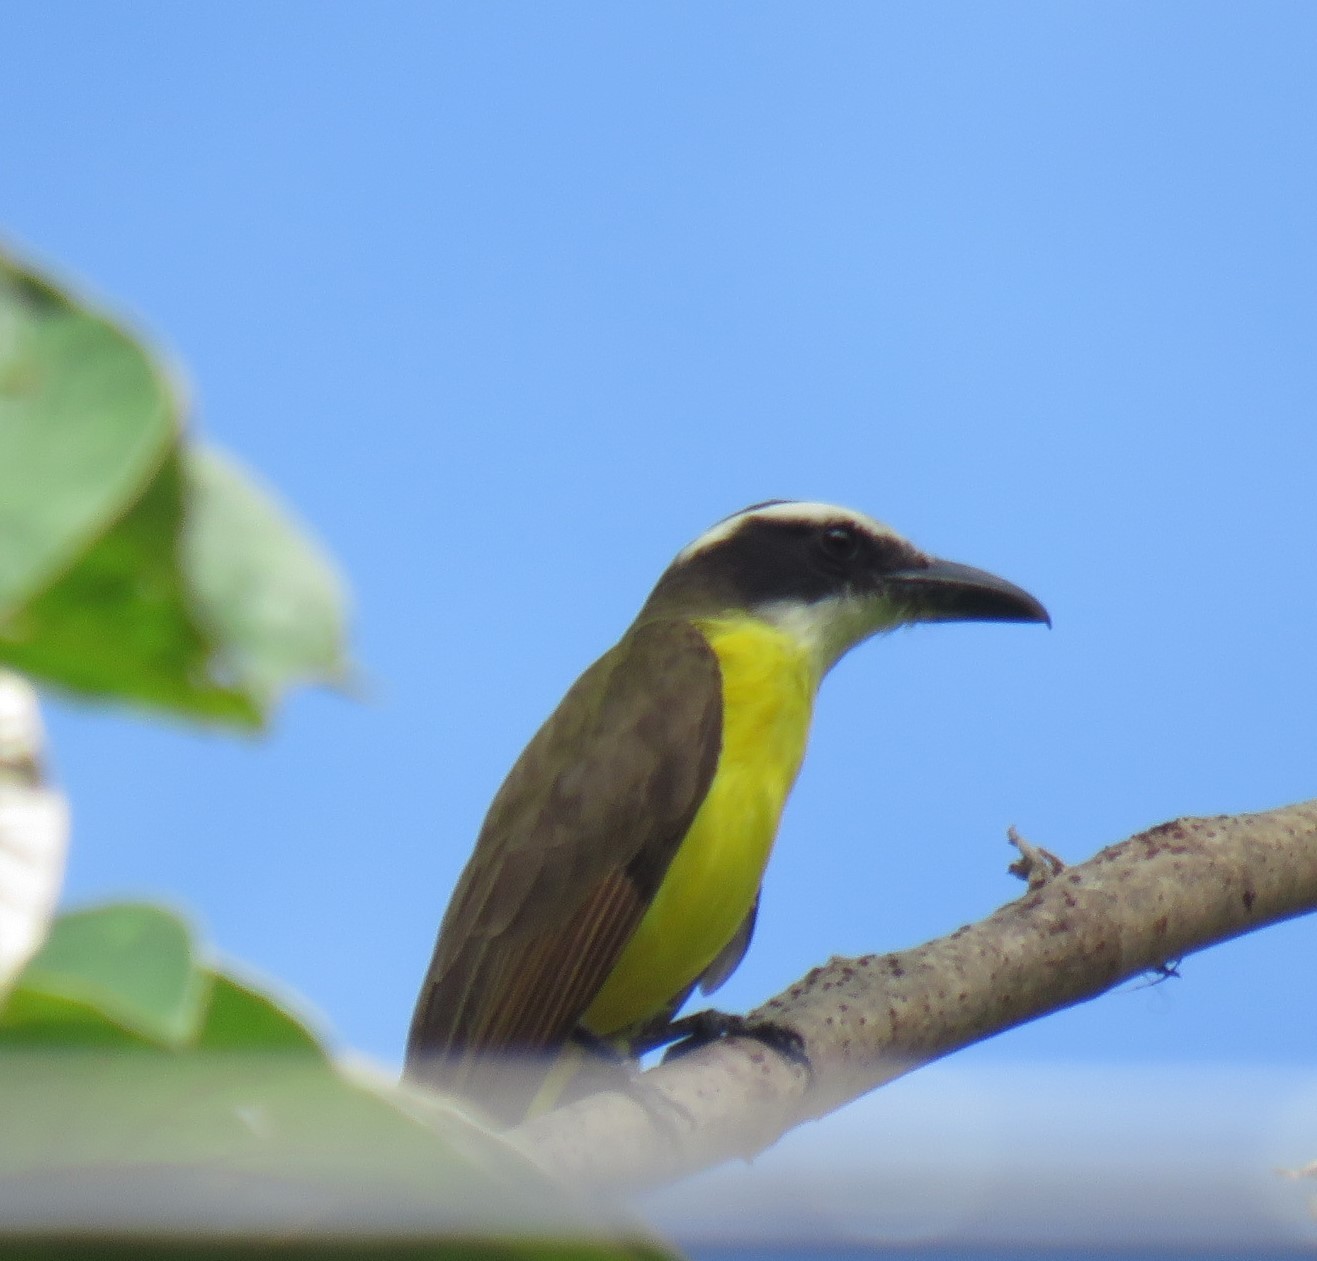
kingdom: Animalia
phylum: Chordata
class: Aves
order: Passeriformes
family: Tyrannidae
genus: Megarynchus
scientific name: Megarynchus pitangua
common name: Boat-billed flycatcher
